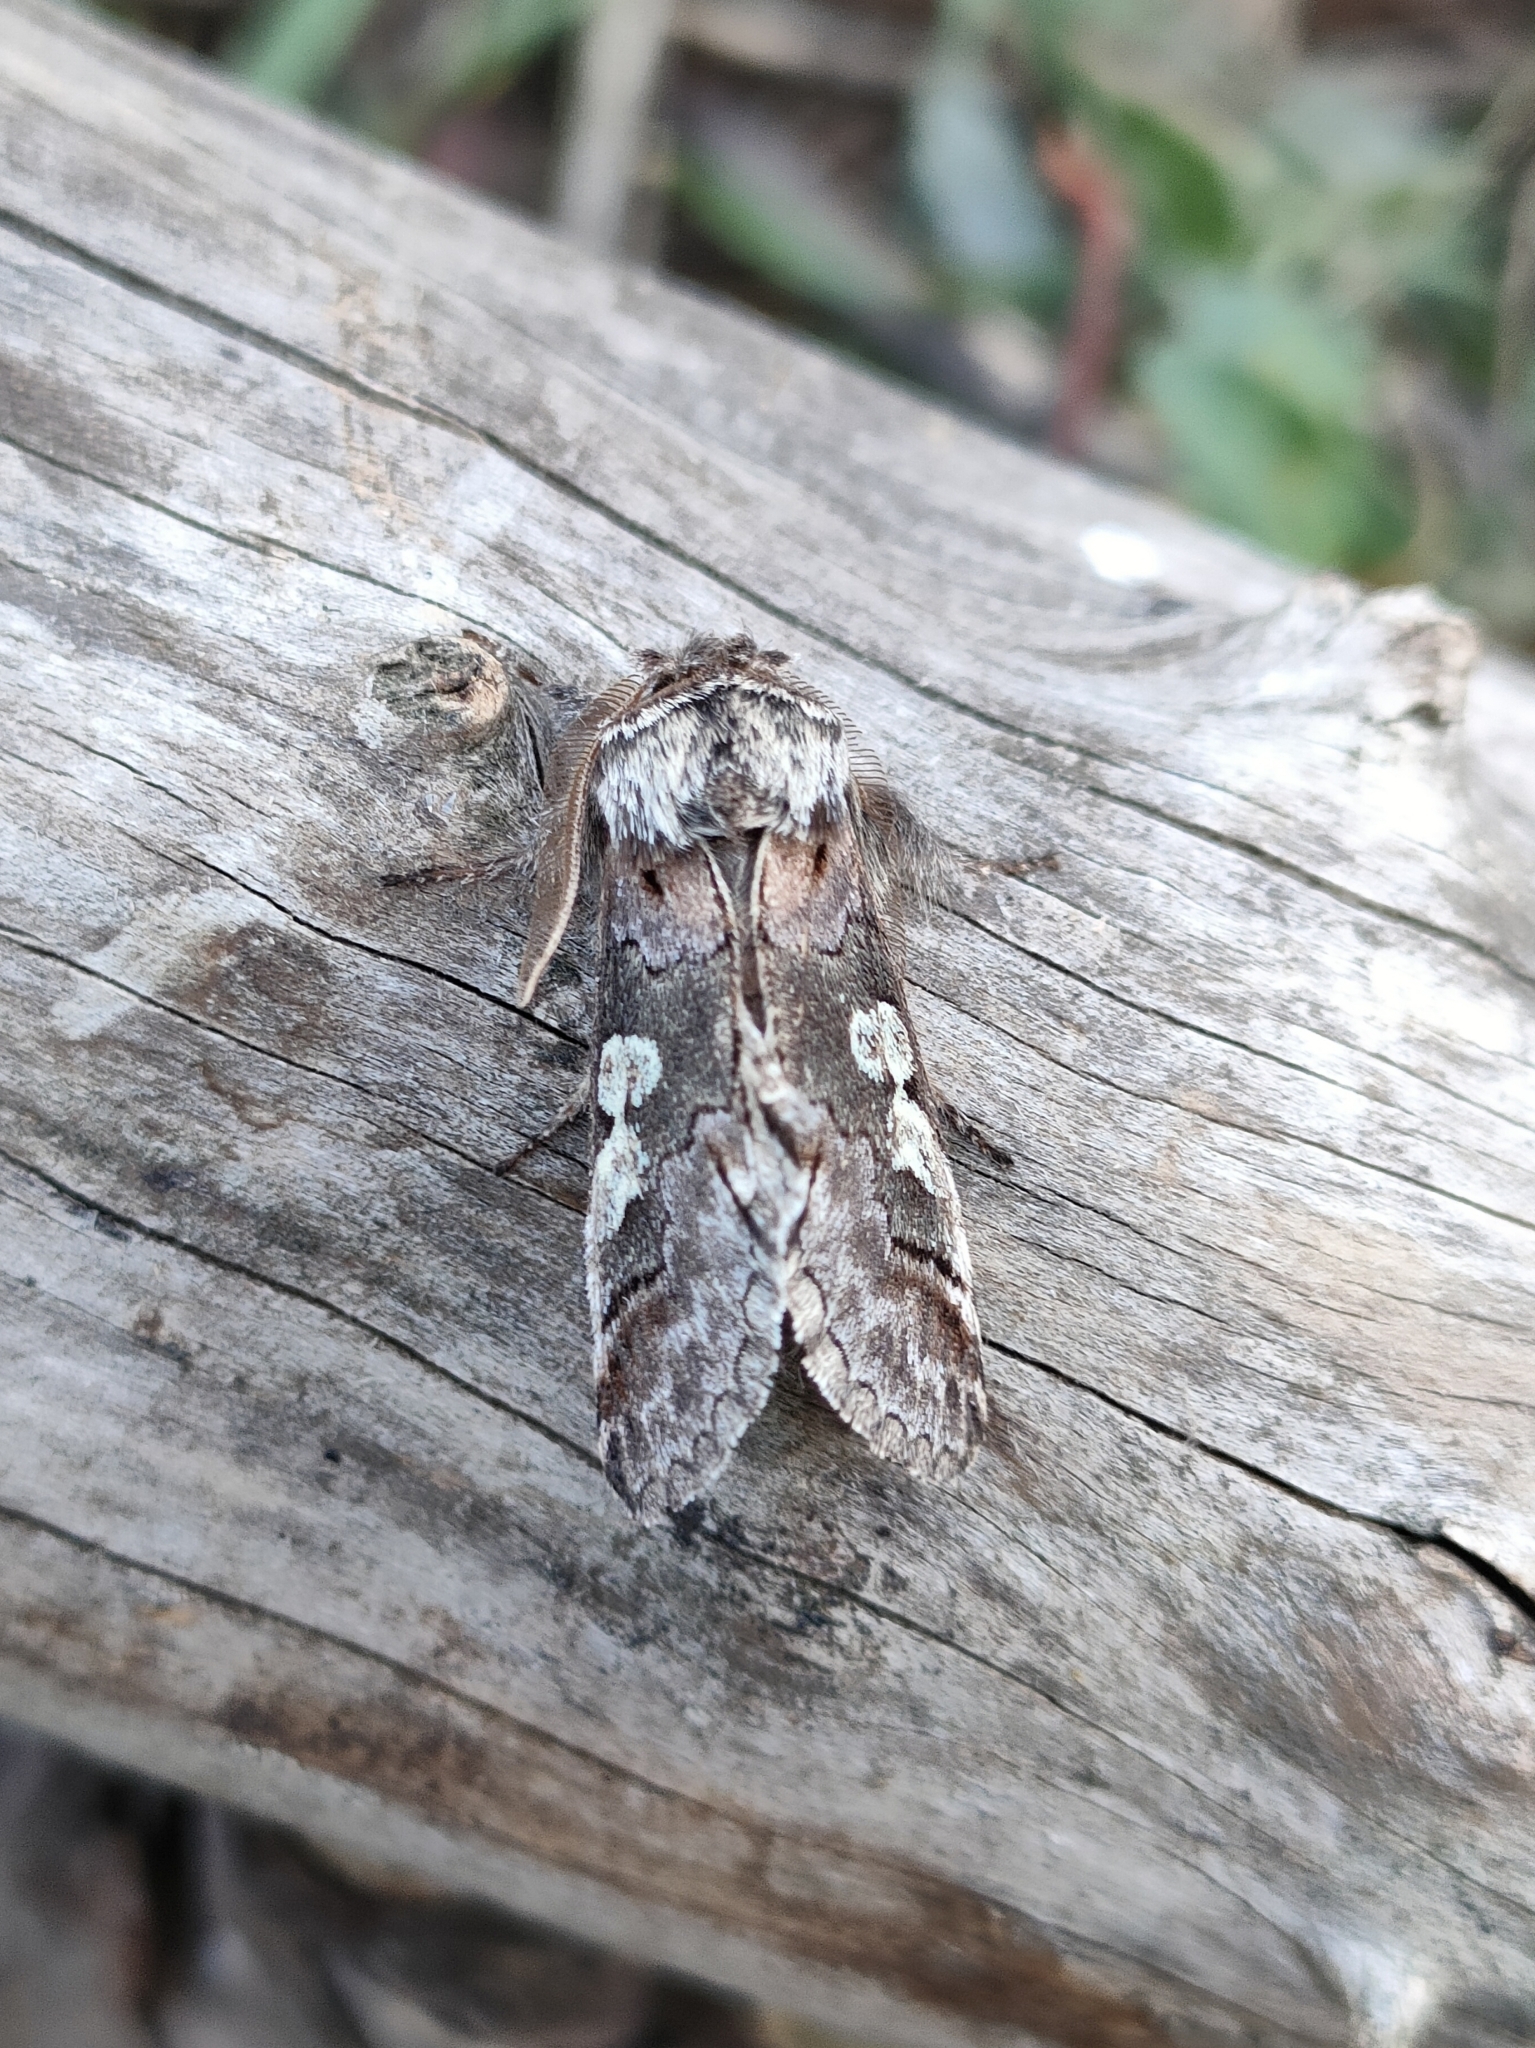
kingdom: Animalia
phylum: Arthropoda
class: Insecta
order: Lepidoptera
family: Noctuidae
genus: Diloba
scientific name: Diloba caeruleocephala
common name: Figure of eight
